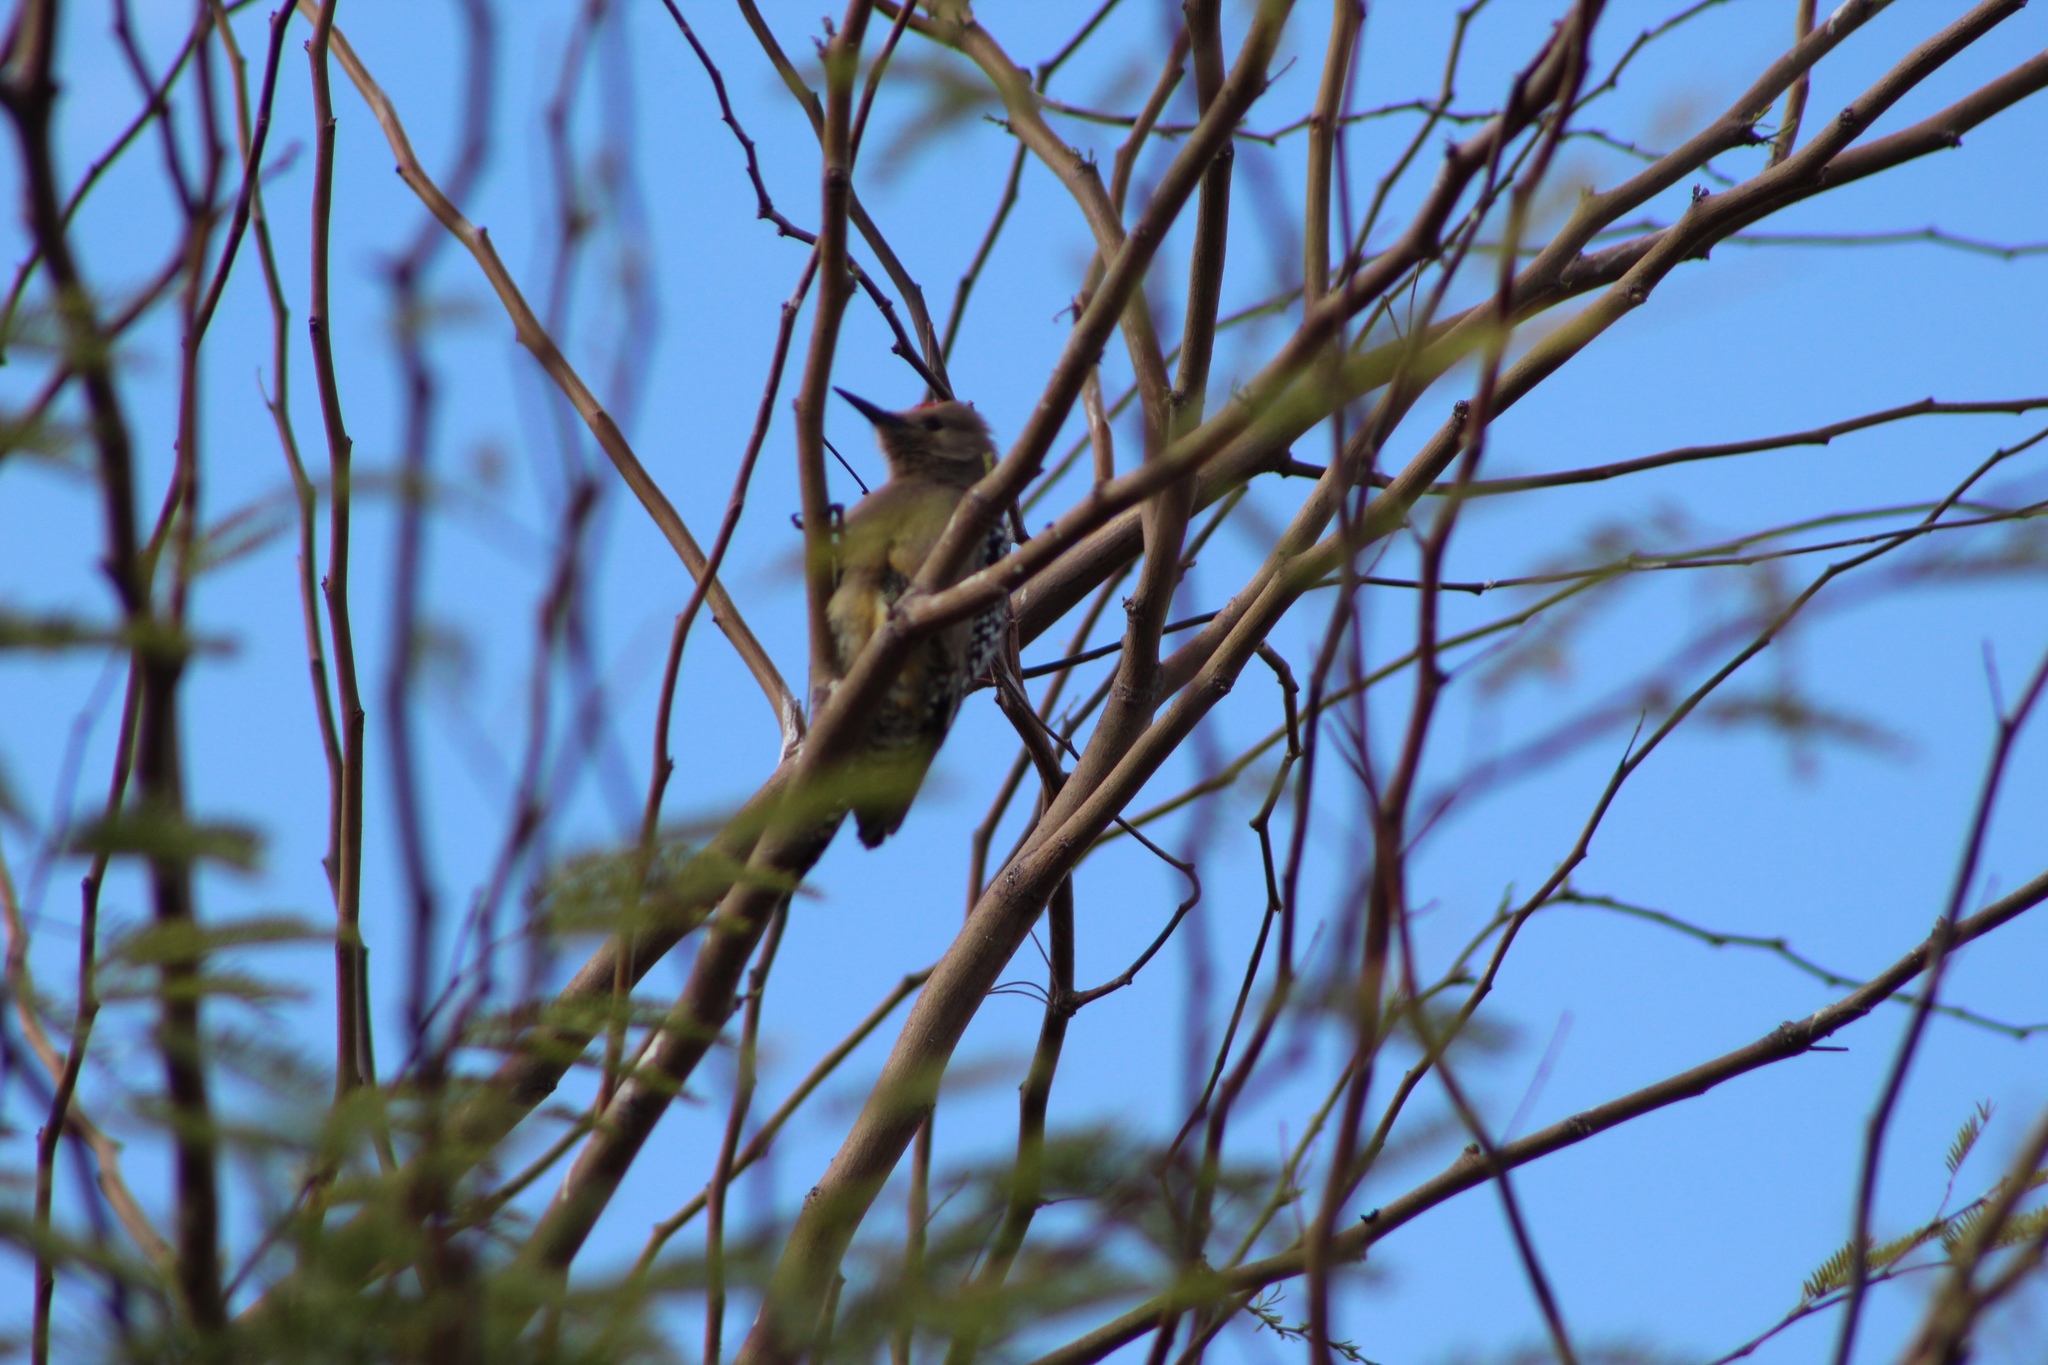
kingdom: Animalia
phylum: Chordata
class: Aves
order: Piciformes
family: Picidae
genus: Melanerpes
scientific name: Melanerpes uropygialis
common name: Gila woodpecker
